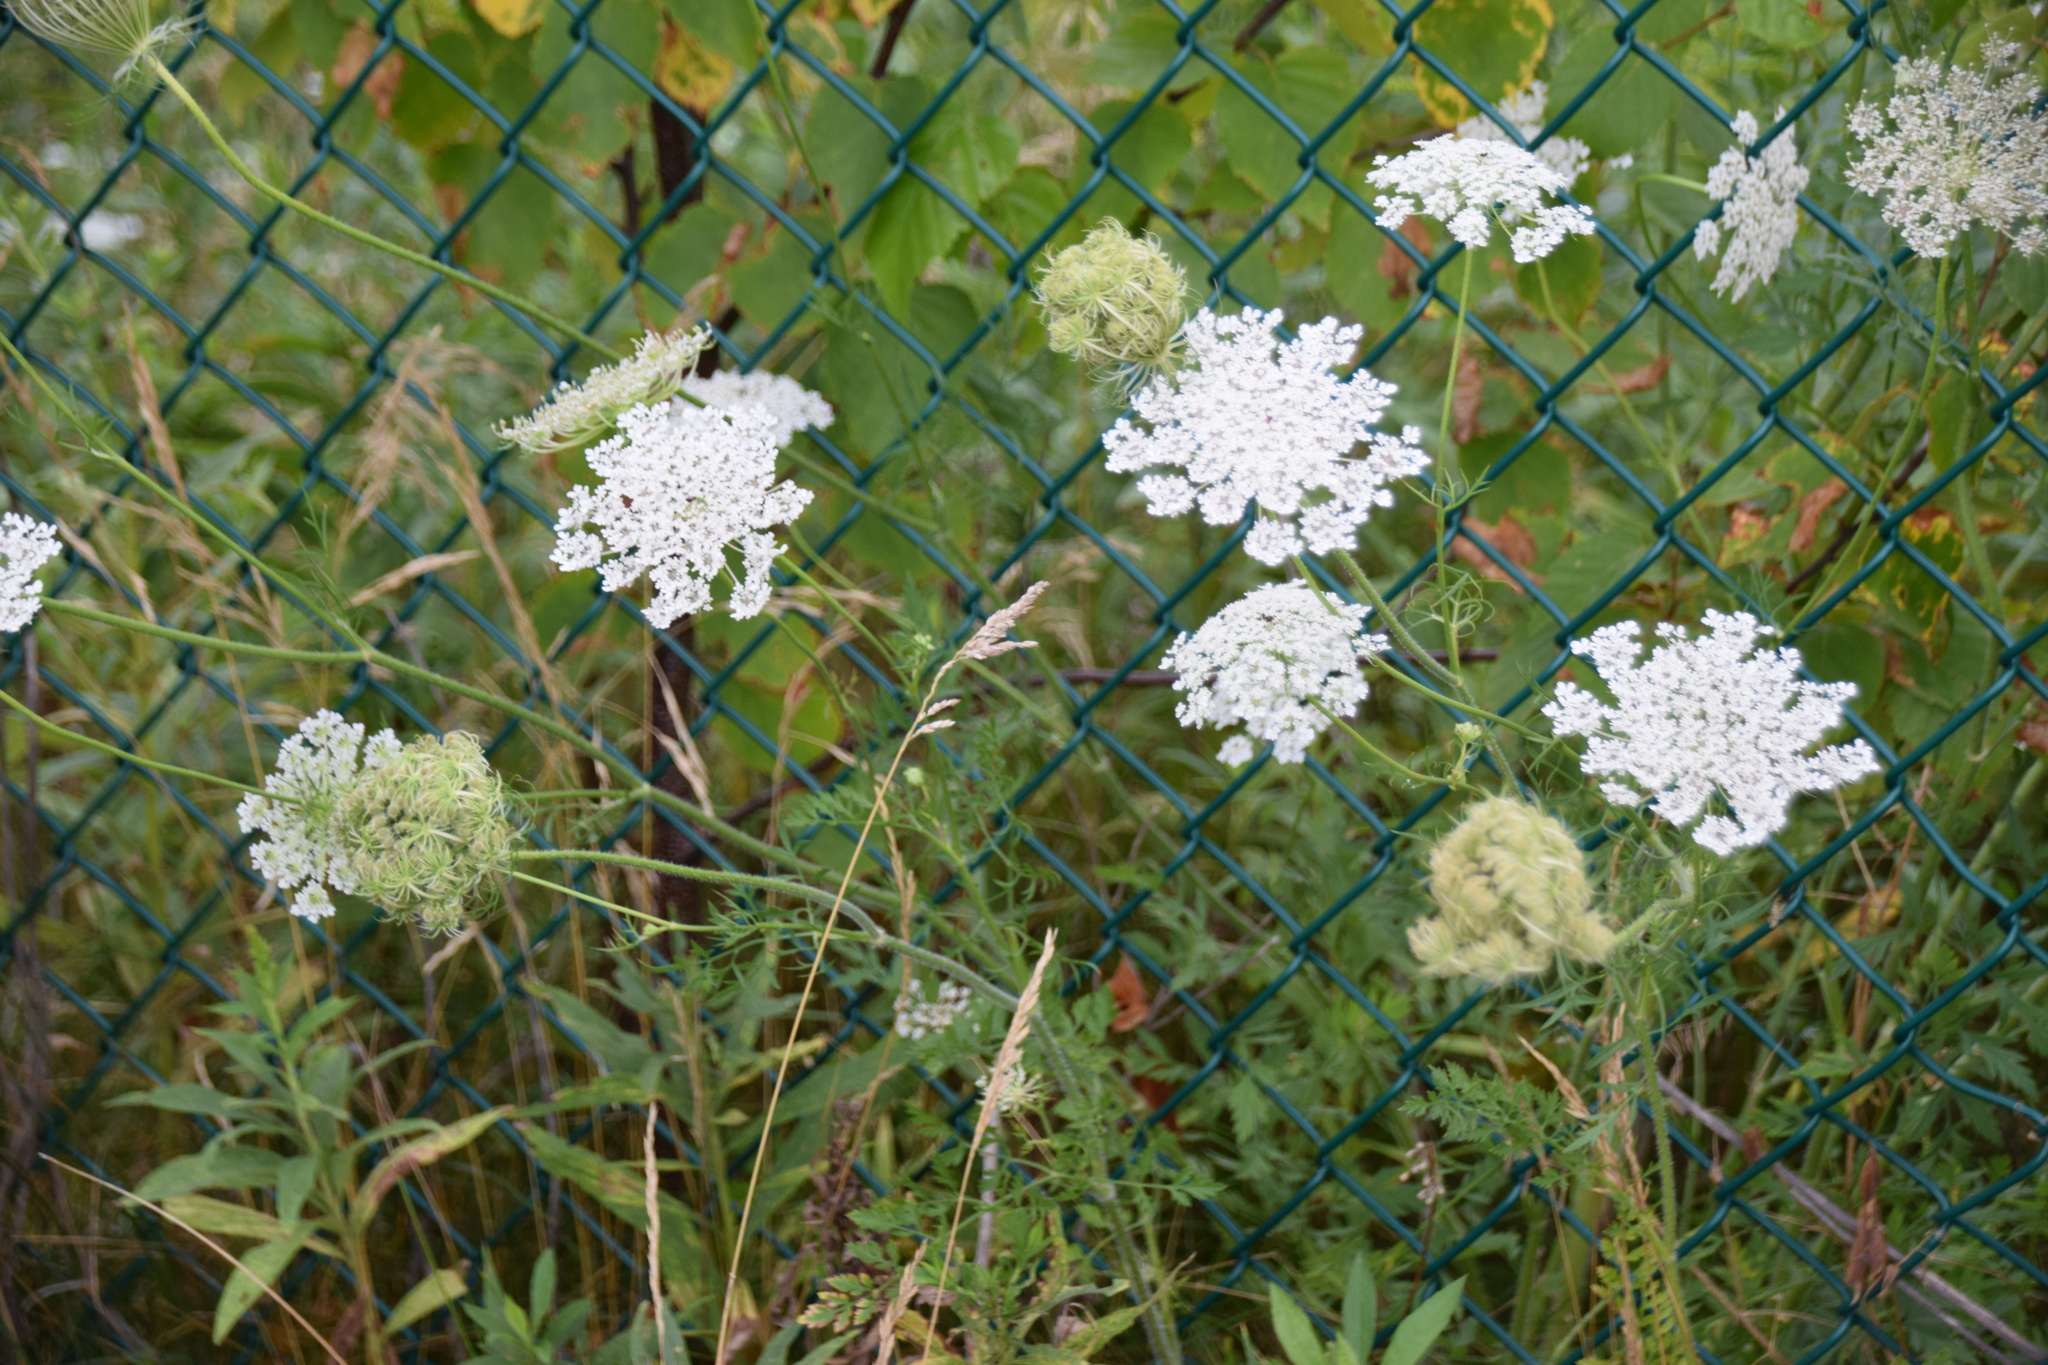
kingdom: Plantae
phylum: Tracheophyta
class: Magnoliopsida
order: Apiales
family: Apiaceae
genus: Daucus
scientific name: Daucus carota
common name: Wild carrot
